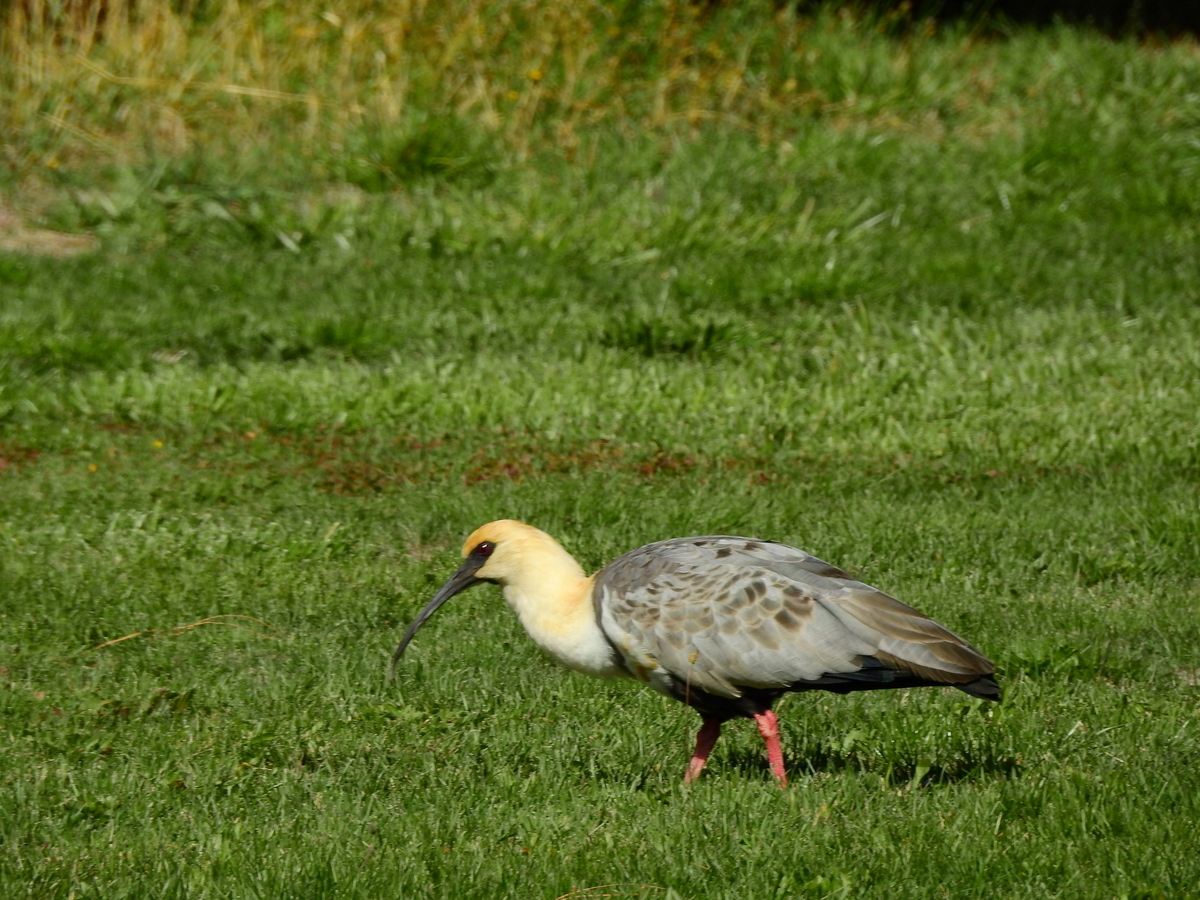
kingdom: Animalia
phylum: Chordata
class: Aves
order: Pelecaniformes
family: Threskiornithidae
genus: Theristicus
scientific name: Theristicus melanopis
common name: Black-faced ibis
